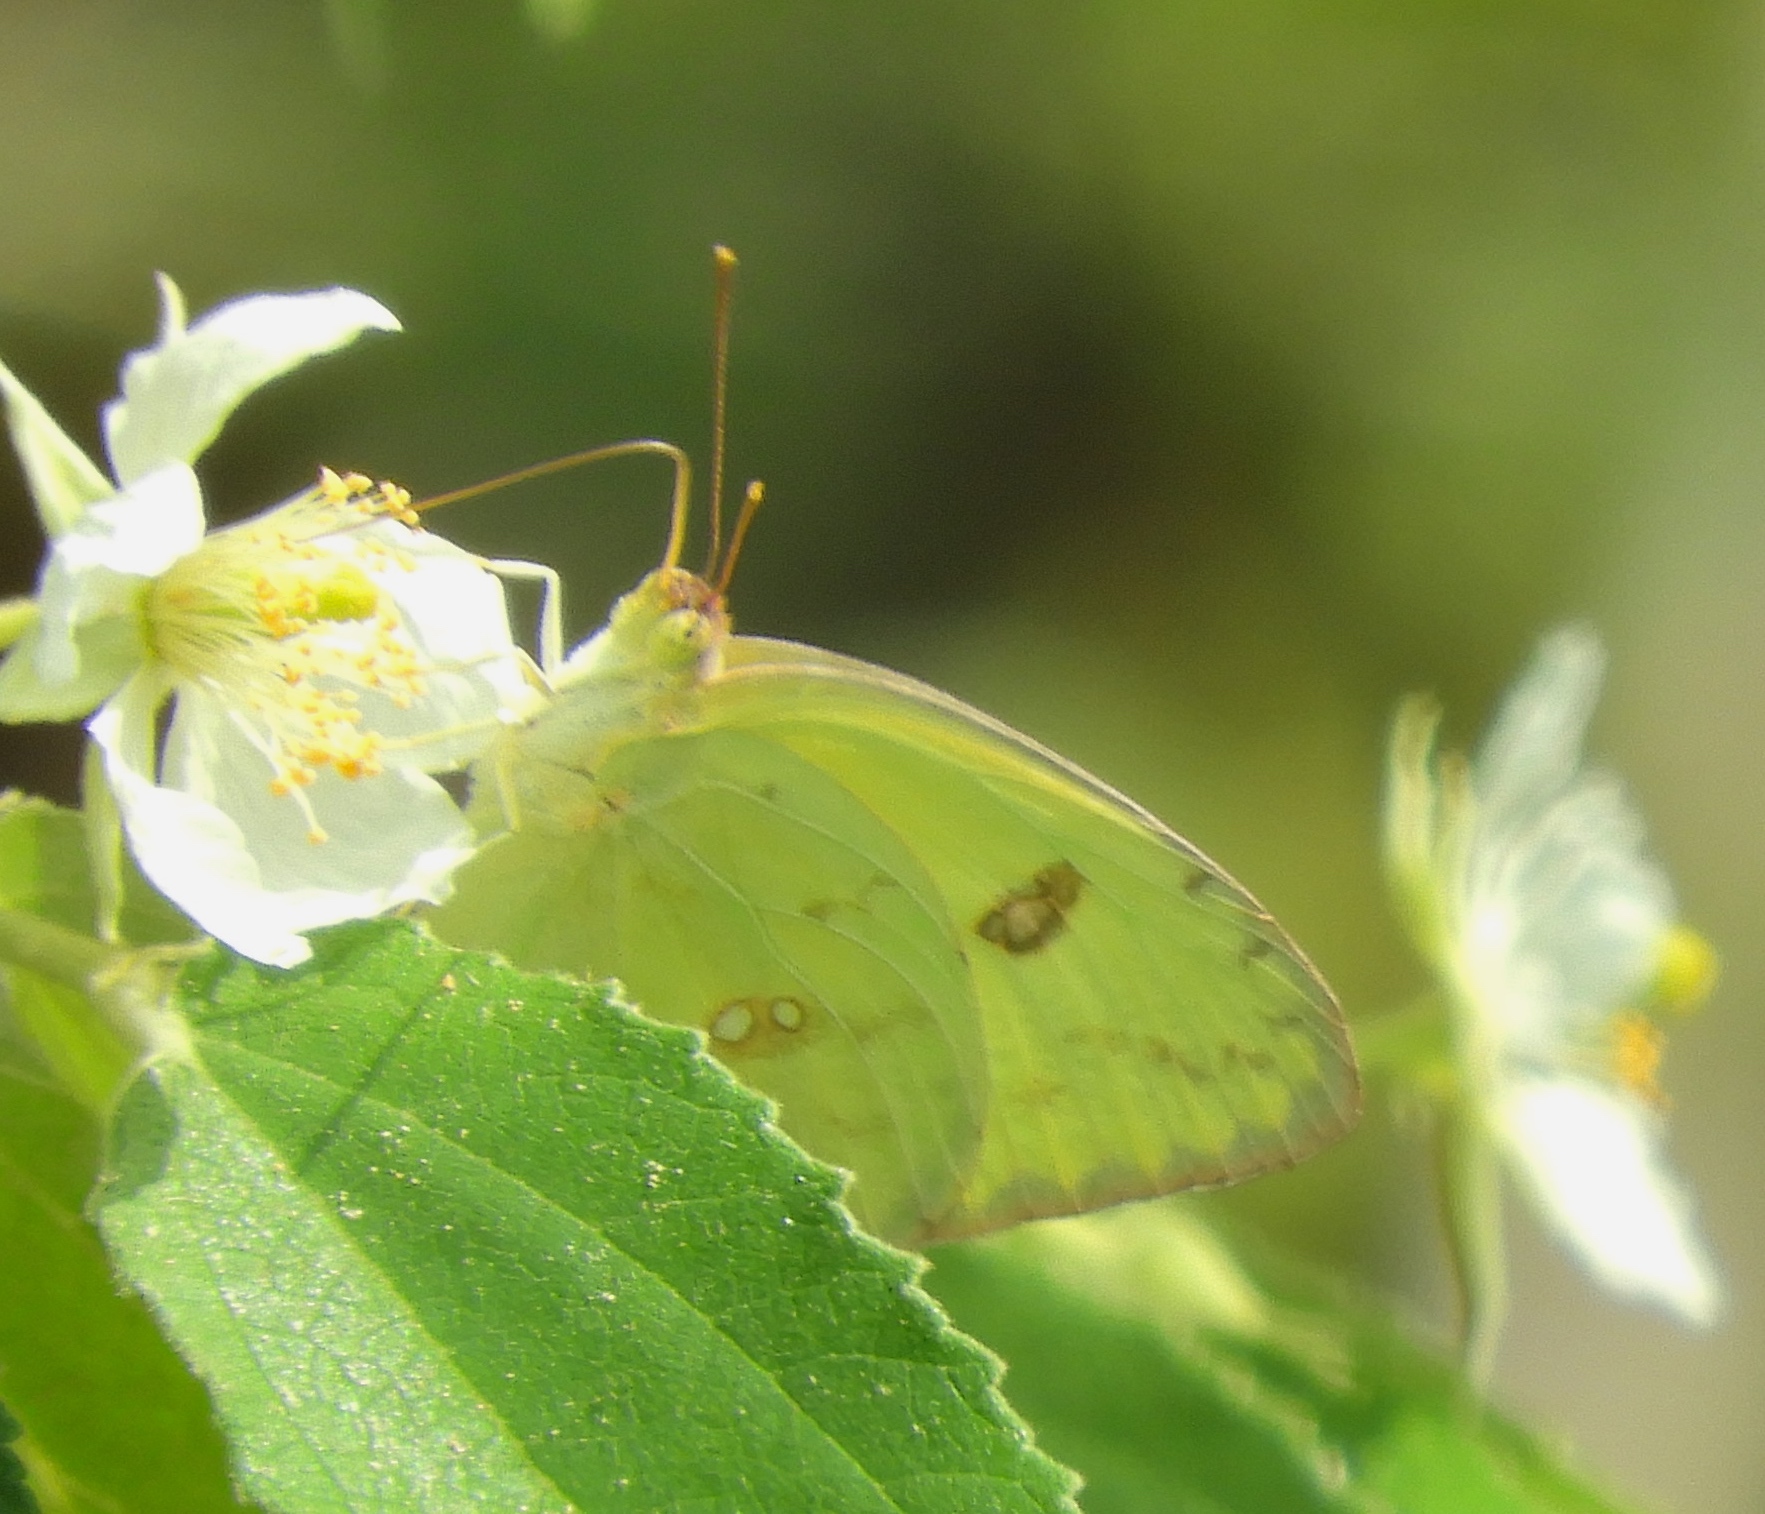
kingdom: Animalia
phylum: Arthropoda
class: Insecta
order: Lepidoptera
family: Pieridae
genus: Phoebis
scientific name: Phoebis marcellina
